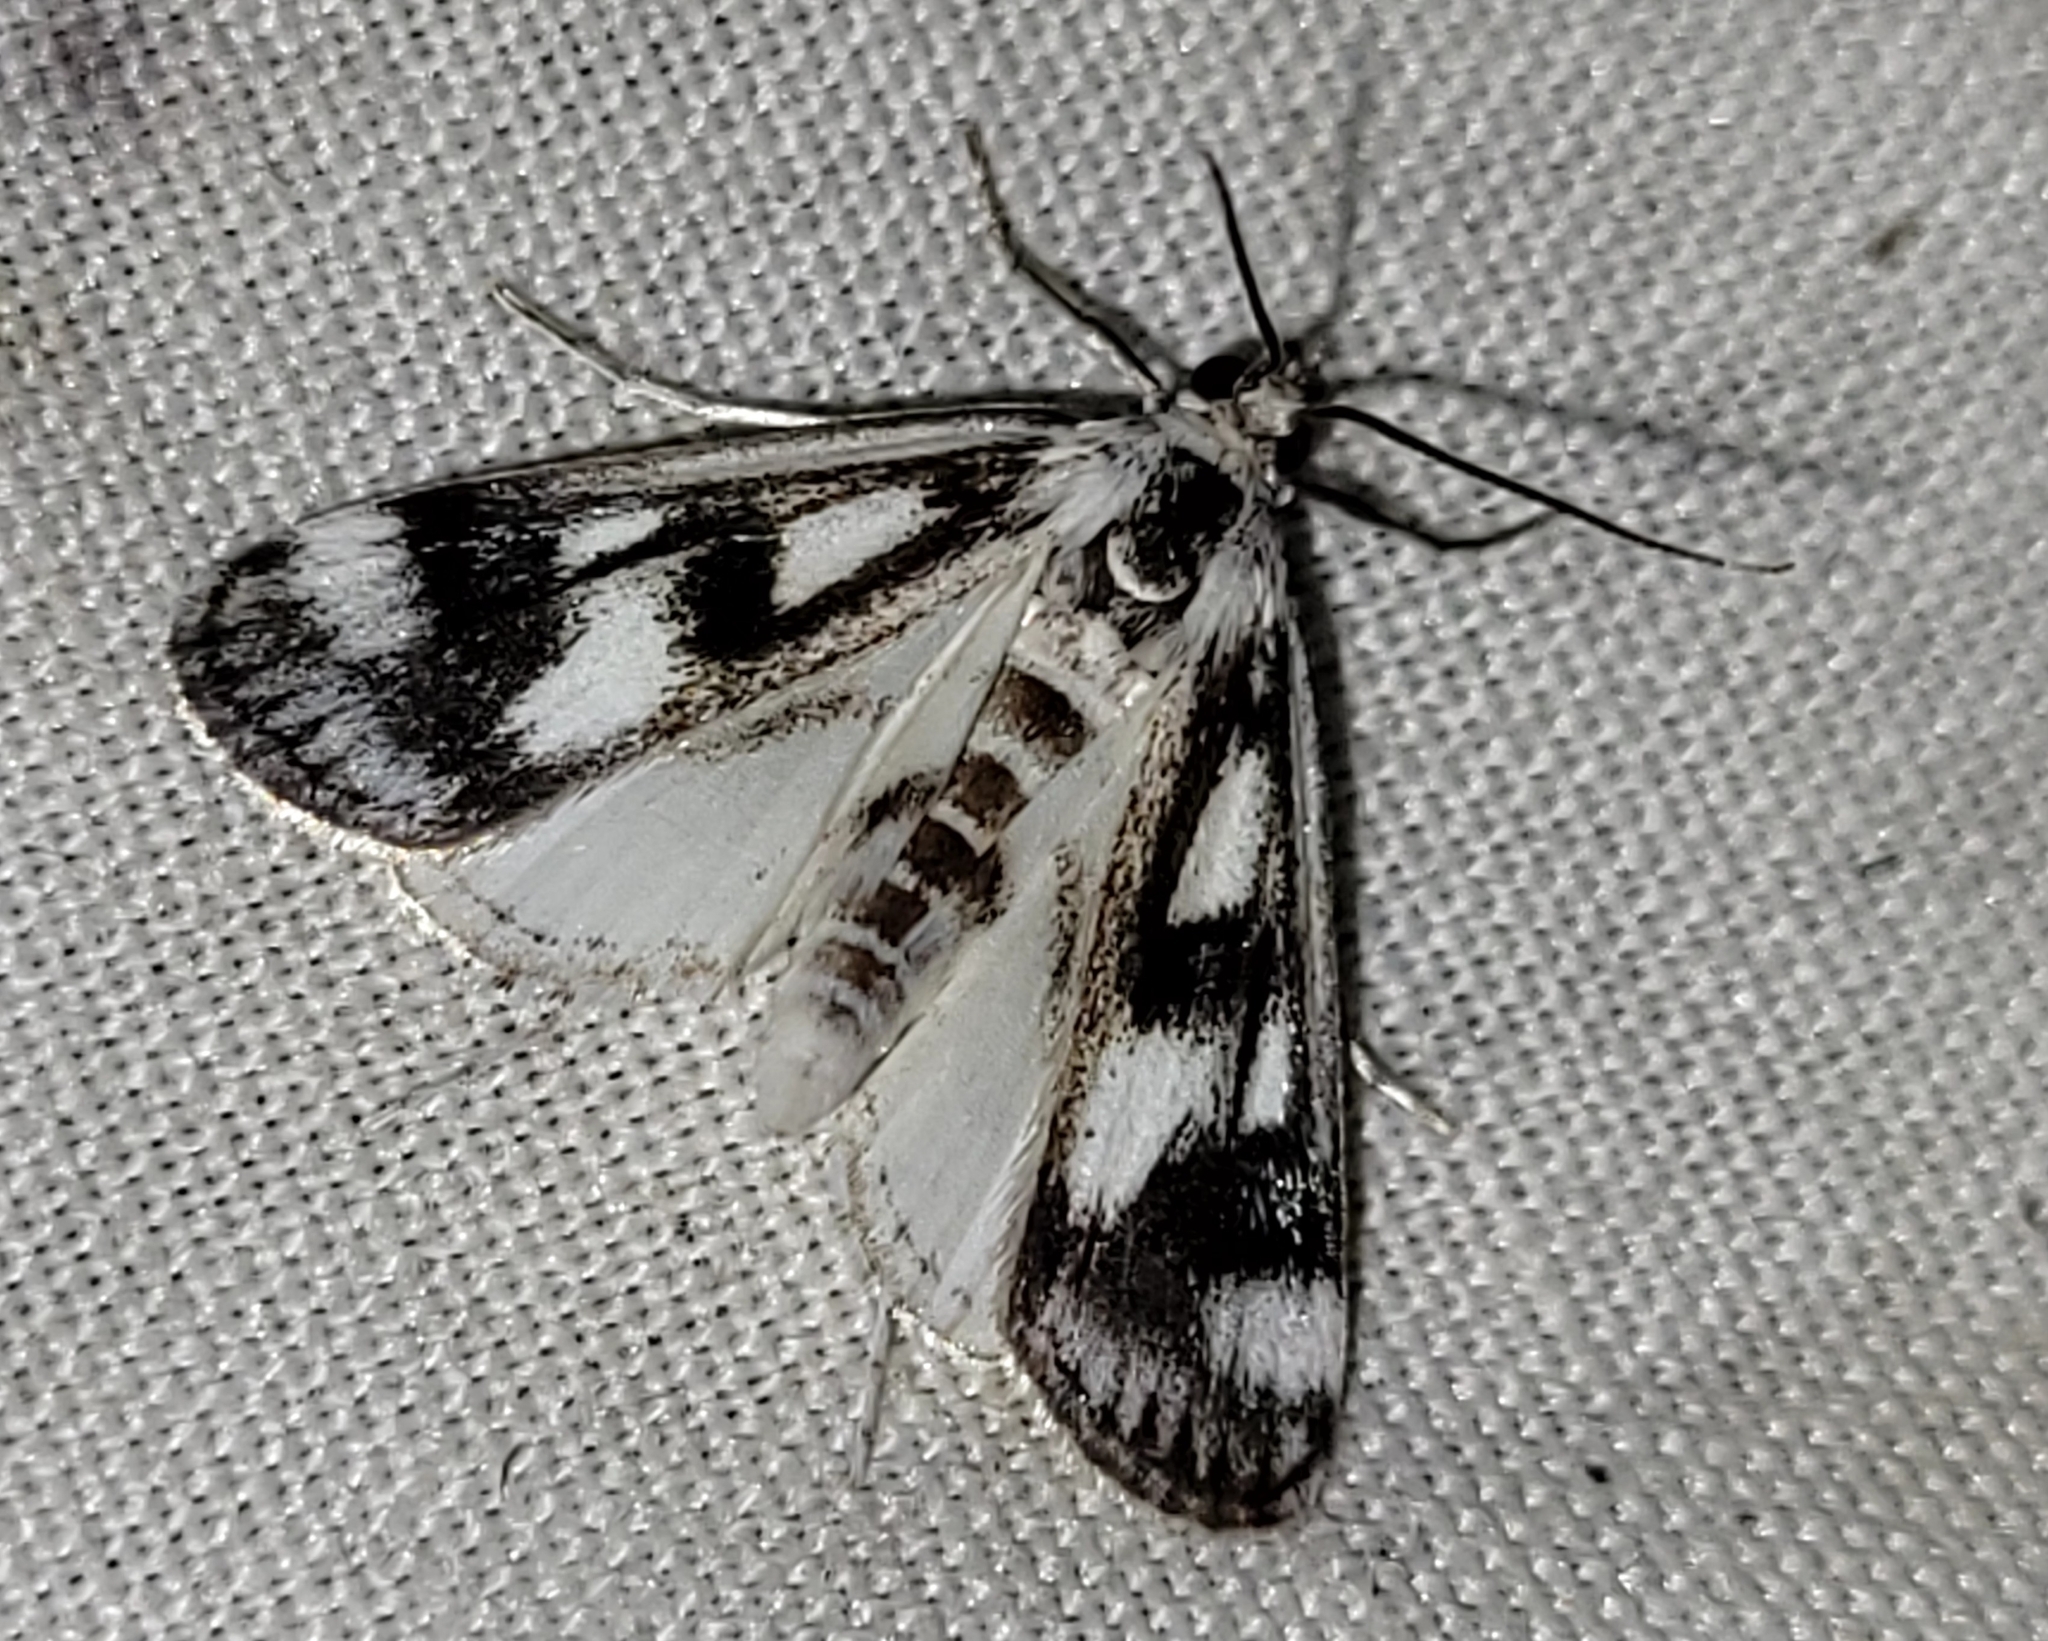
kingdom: Animalia
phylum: Arthropoda
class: Insecta
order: Lepidoptera
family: Crambidae
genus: Parapoynx
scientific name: Parapoynx maculalis
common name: Polymorphic pondweed moth
